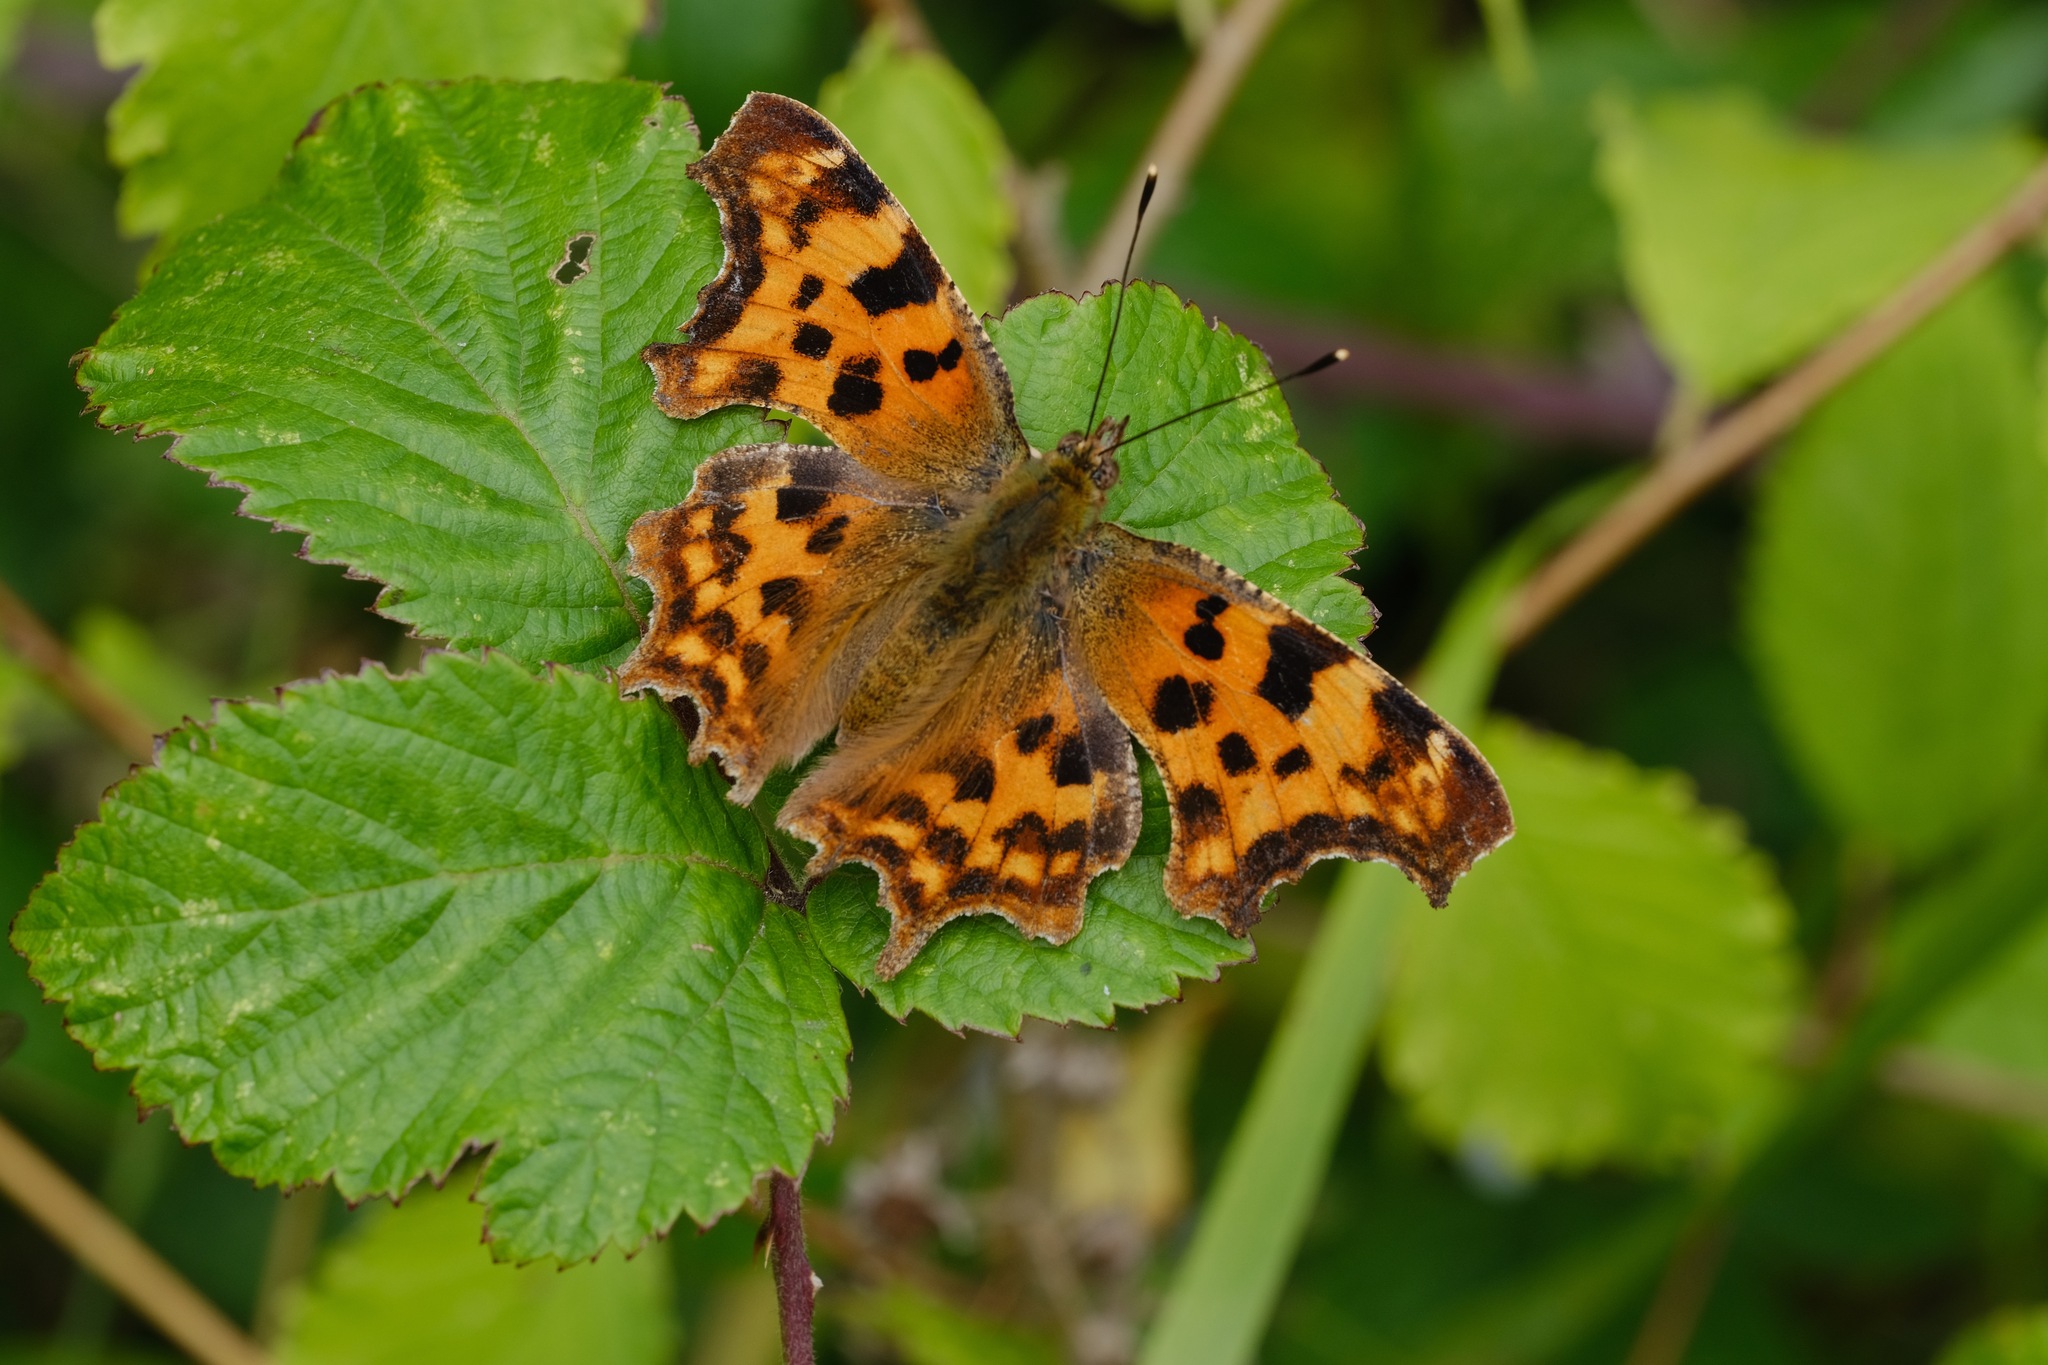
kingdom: Animalia
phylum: Arthropoda
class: Insecta
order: Lepidoptera
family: Nymphalidae
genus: Polygonia
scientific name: Polygonia c-album
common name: Comma
